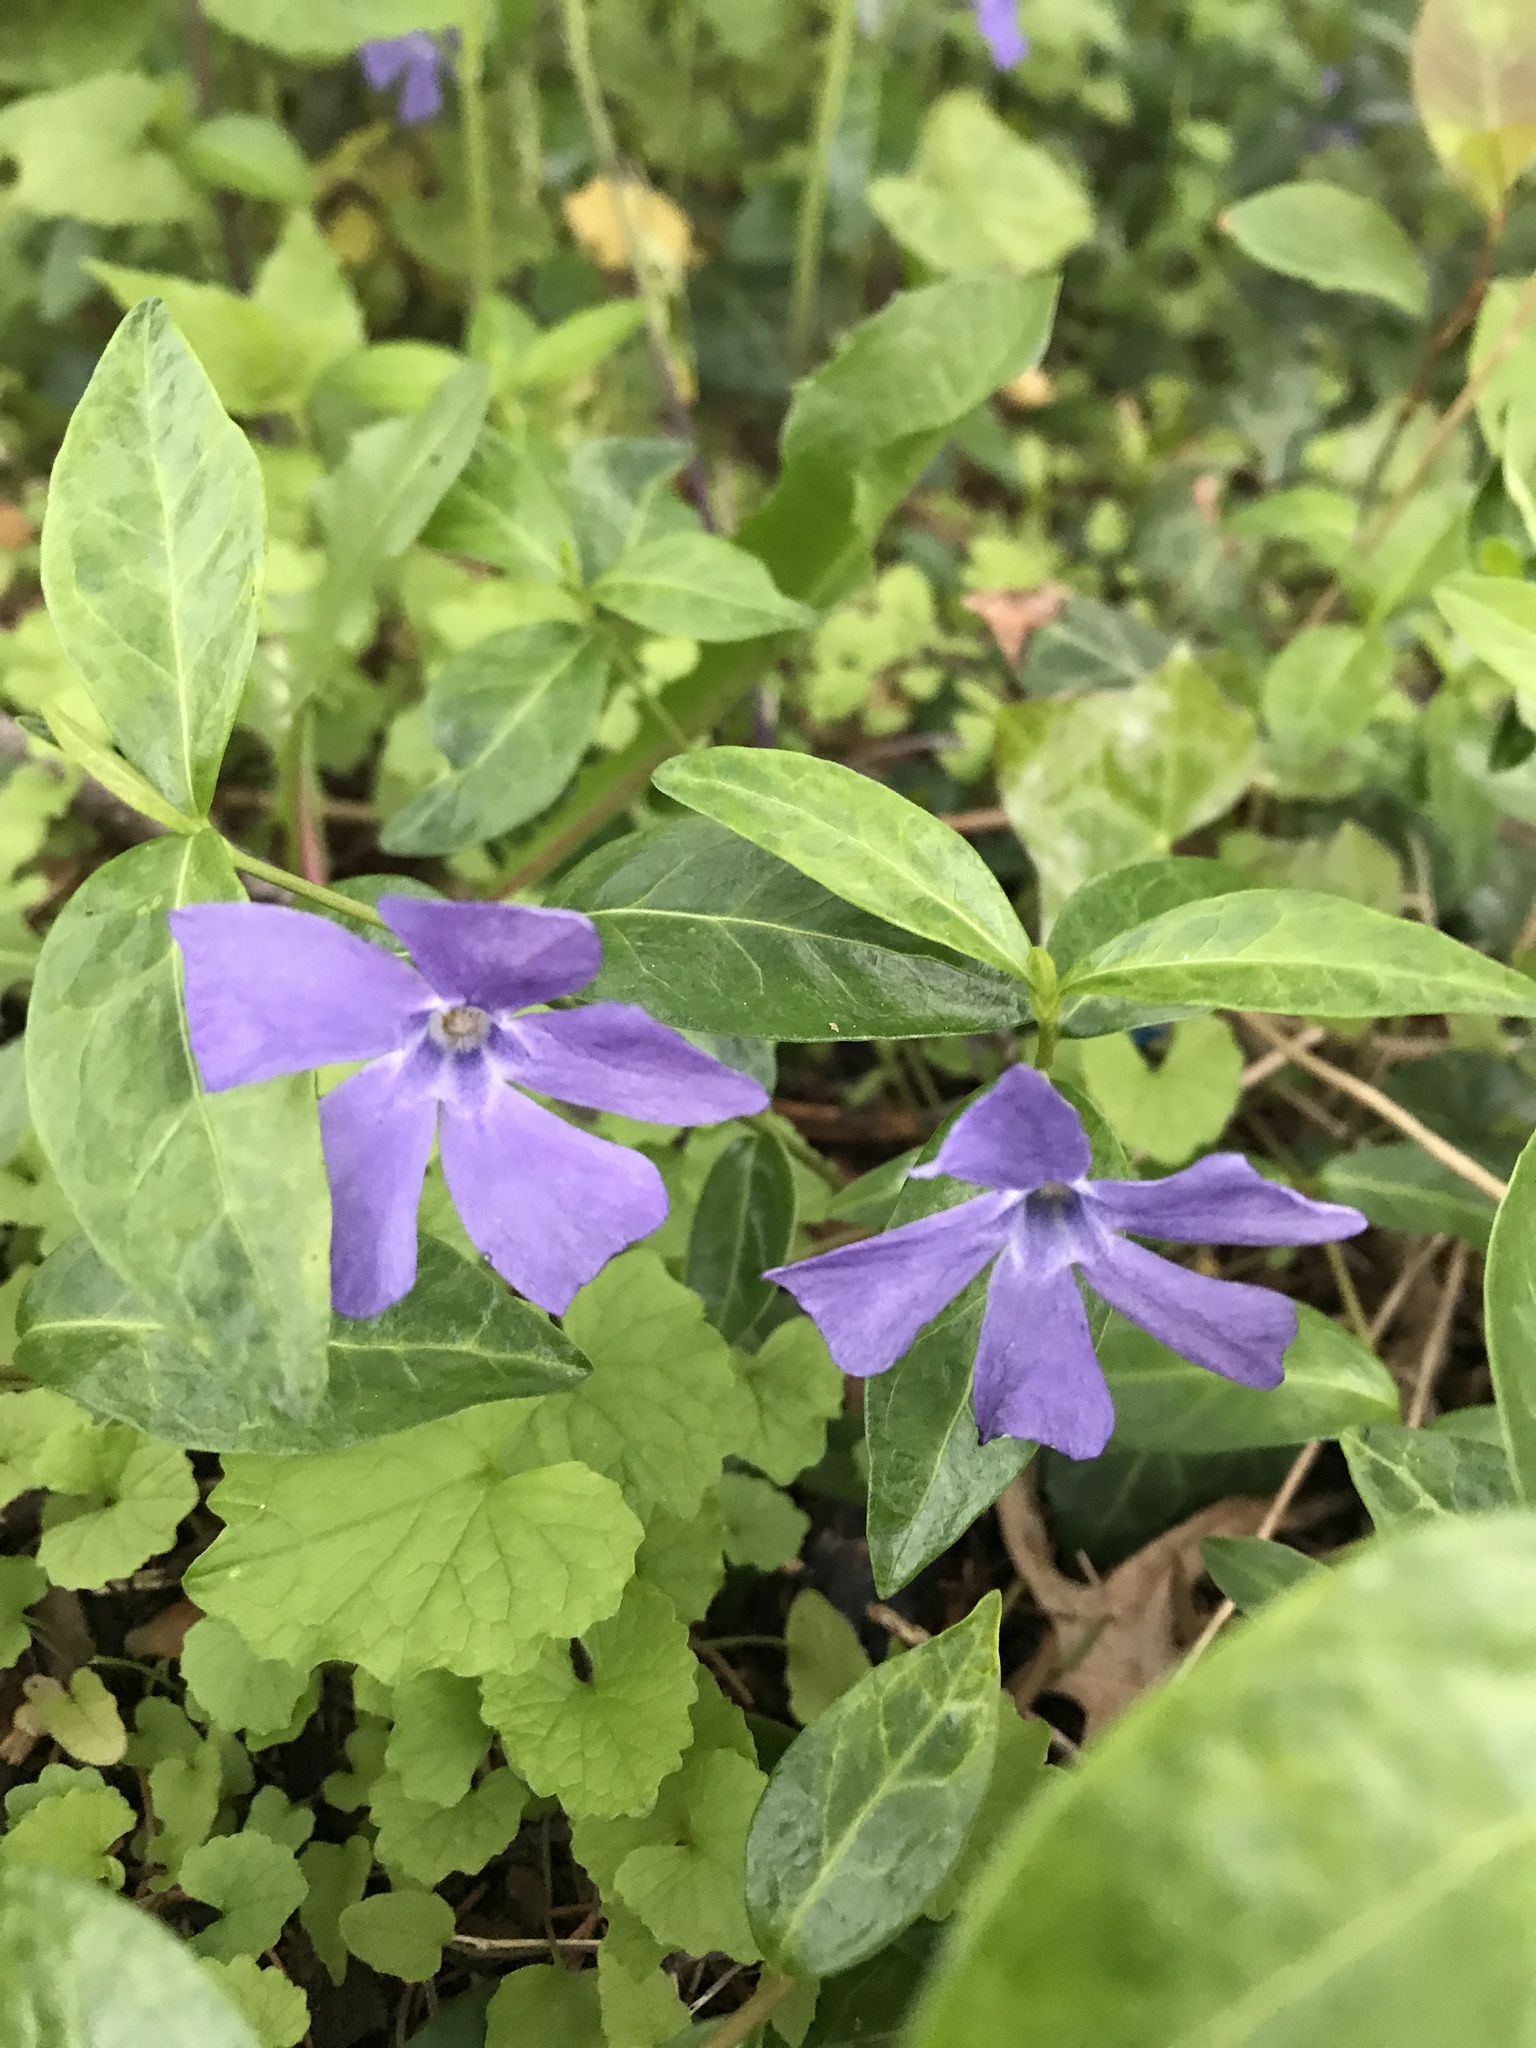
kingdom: Plantae
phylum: Tracheophyta
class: Magnoliopsida
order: Gentianales
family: Apocynaceae
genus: Vinca
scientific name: Vinca minor
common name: Lesser periwinkle
